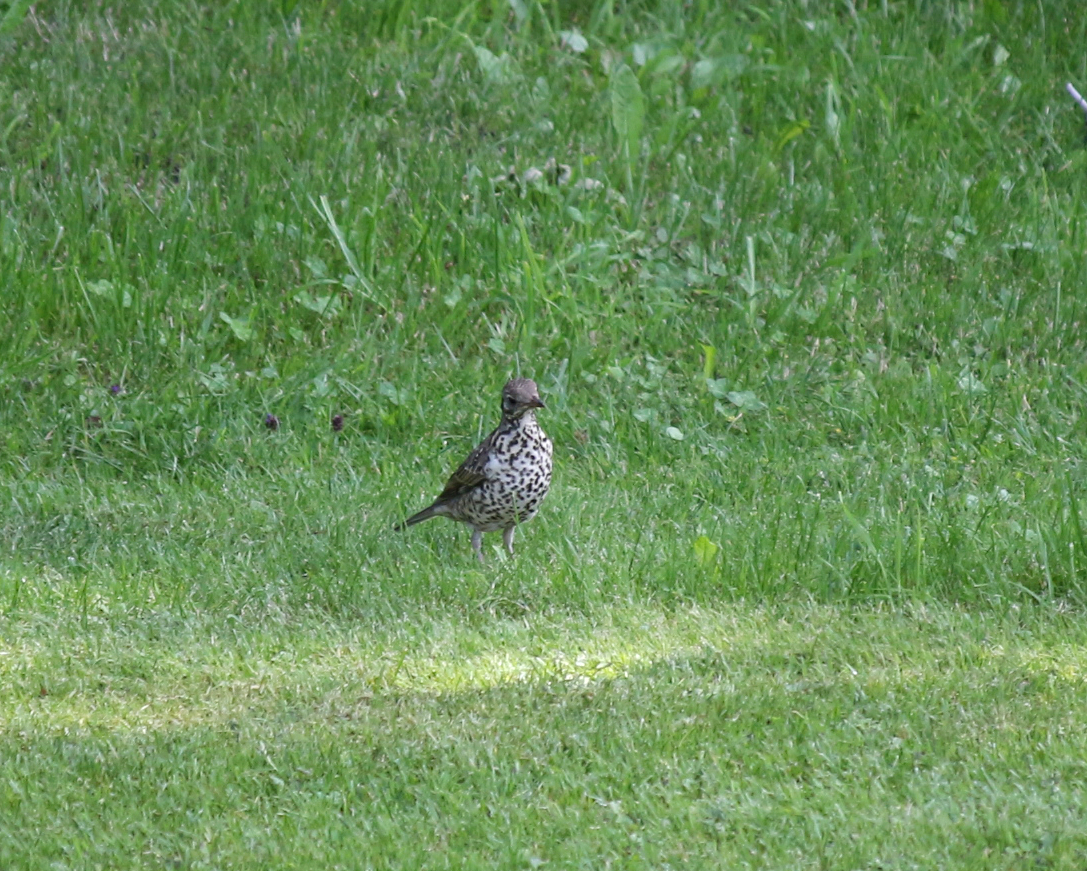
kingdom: Animalia
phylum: Chordata
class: Aves
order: Passeriformes
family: Turdidae
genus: Turdus
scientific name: Turdus viscivorus
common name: Mistle thrush
